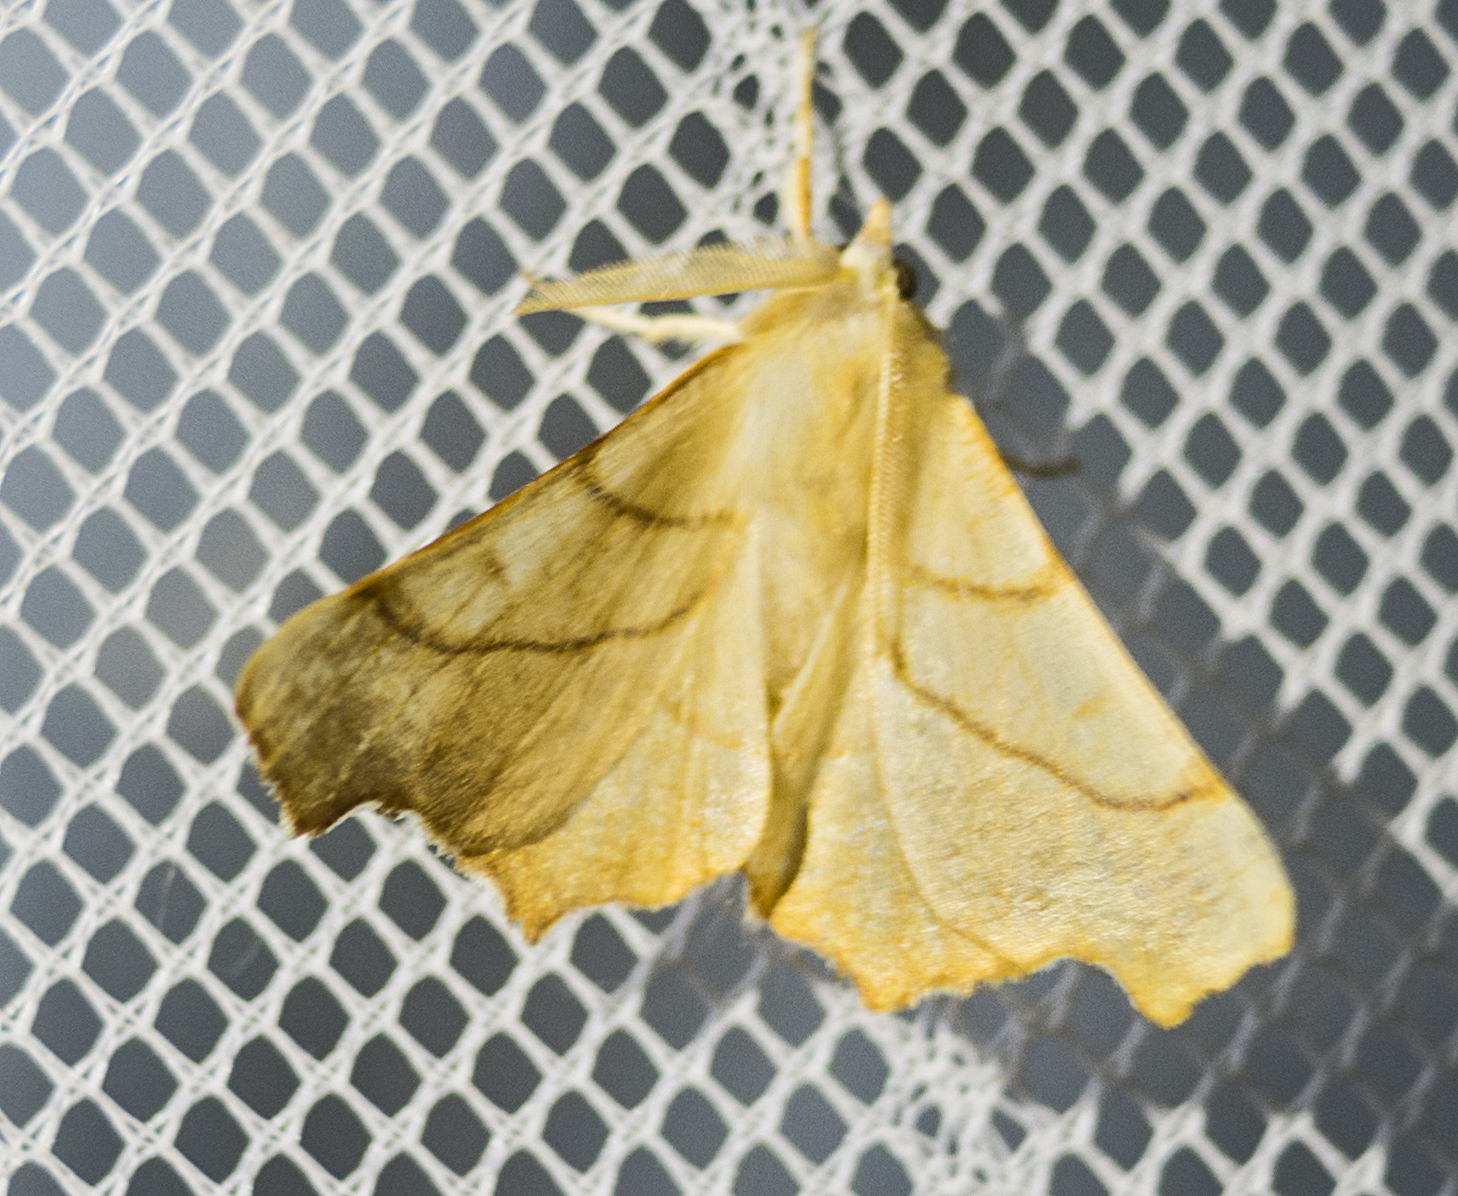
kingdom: Animalia
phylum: Arthropoda
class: Insecta
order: Lepidoptera
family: Geometridae
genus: Ennomos
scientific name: Ennomos fuscantaria
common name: Dusky thorn
